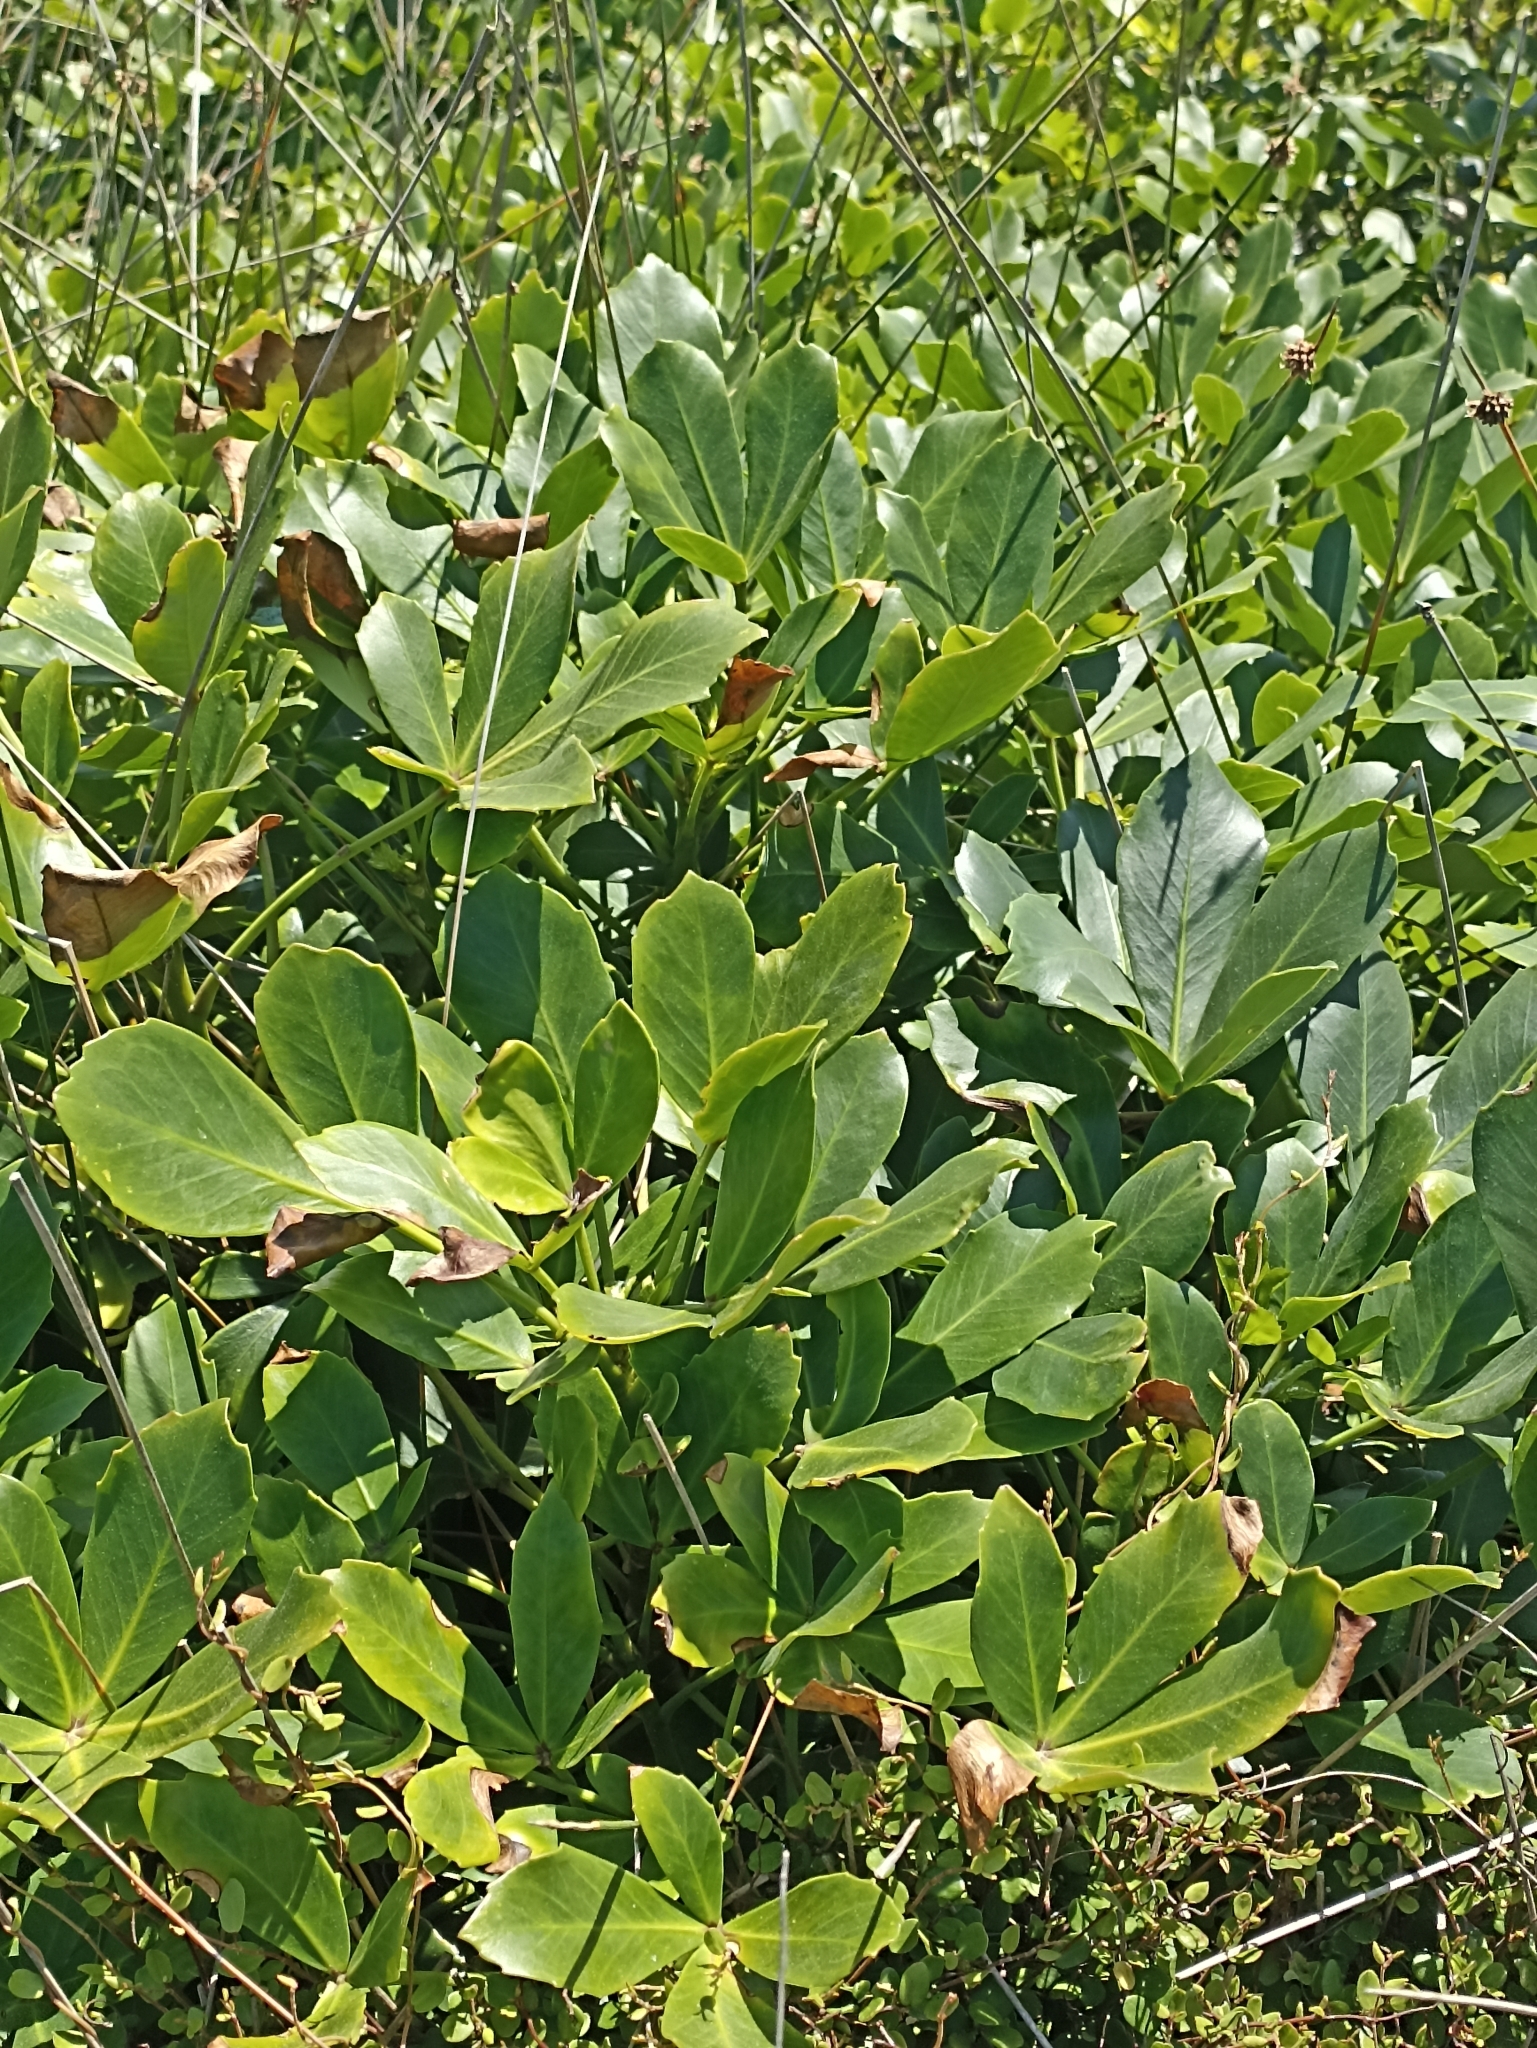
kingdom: Plantae
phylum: Tracheophyta
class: Magnoliopsida
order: Apiales
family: Araliaceae
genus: Pseudopanax
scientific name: Pseudopanax lessonii
